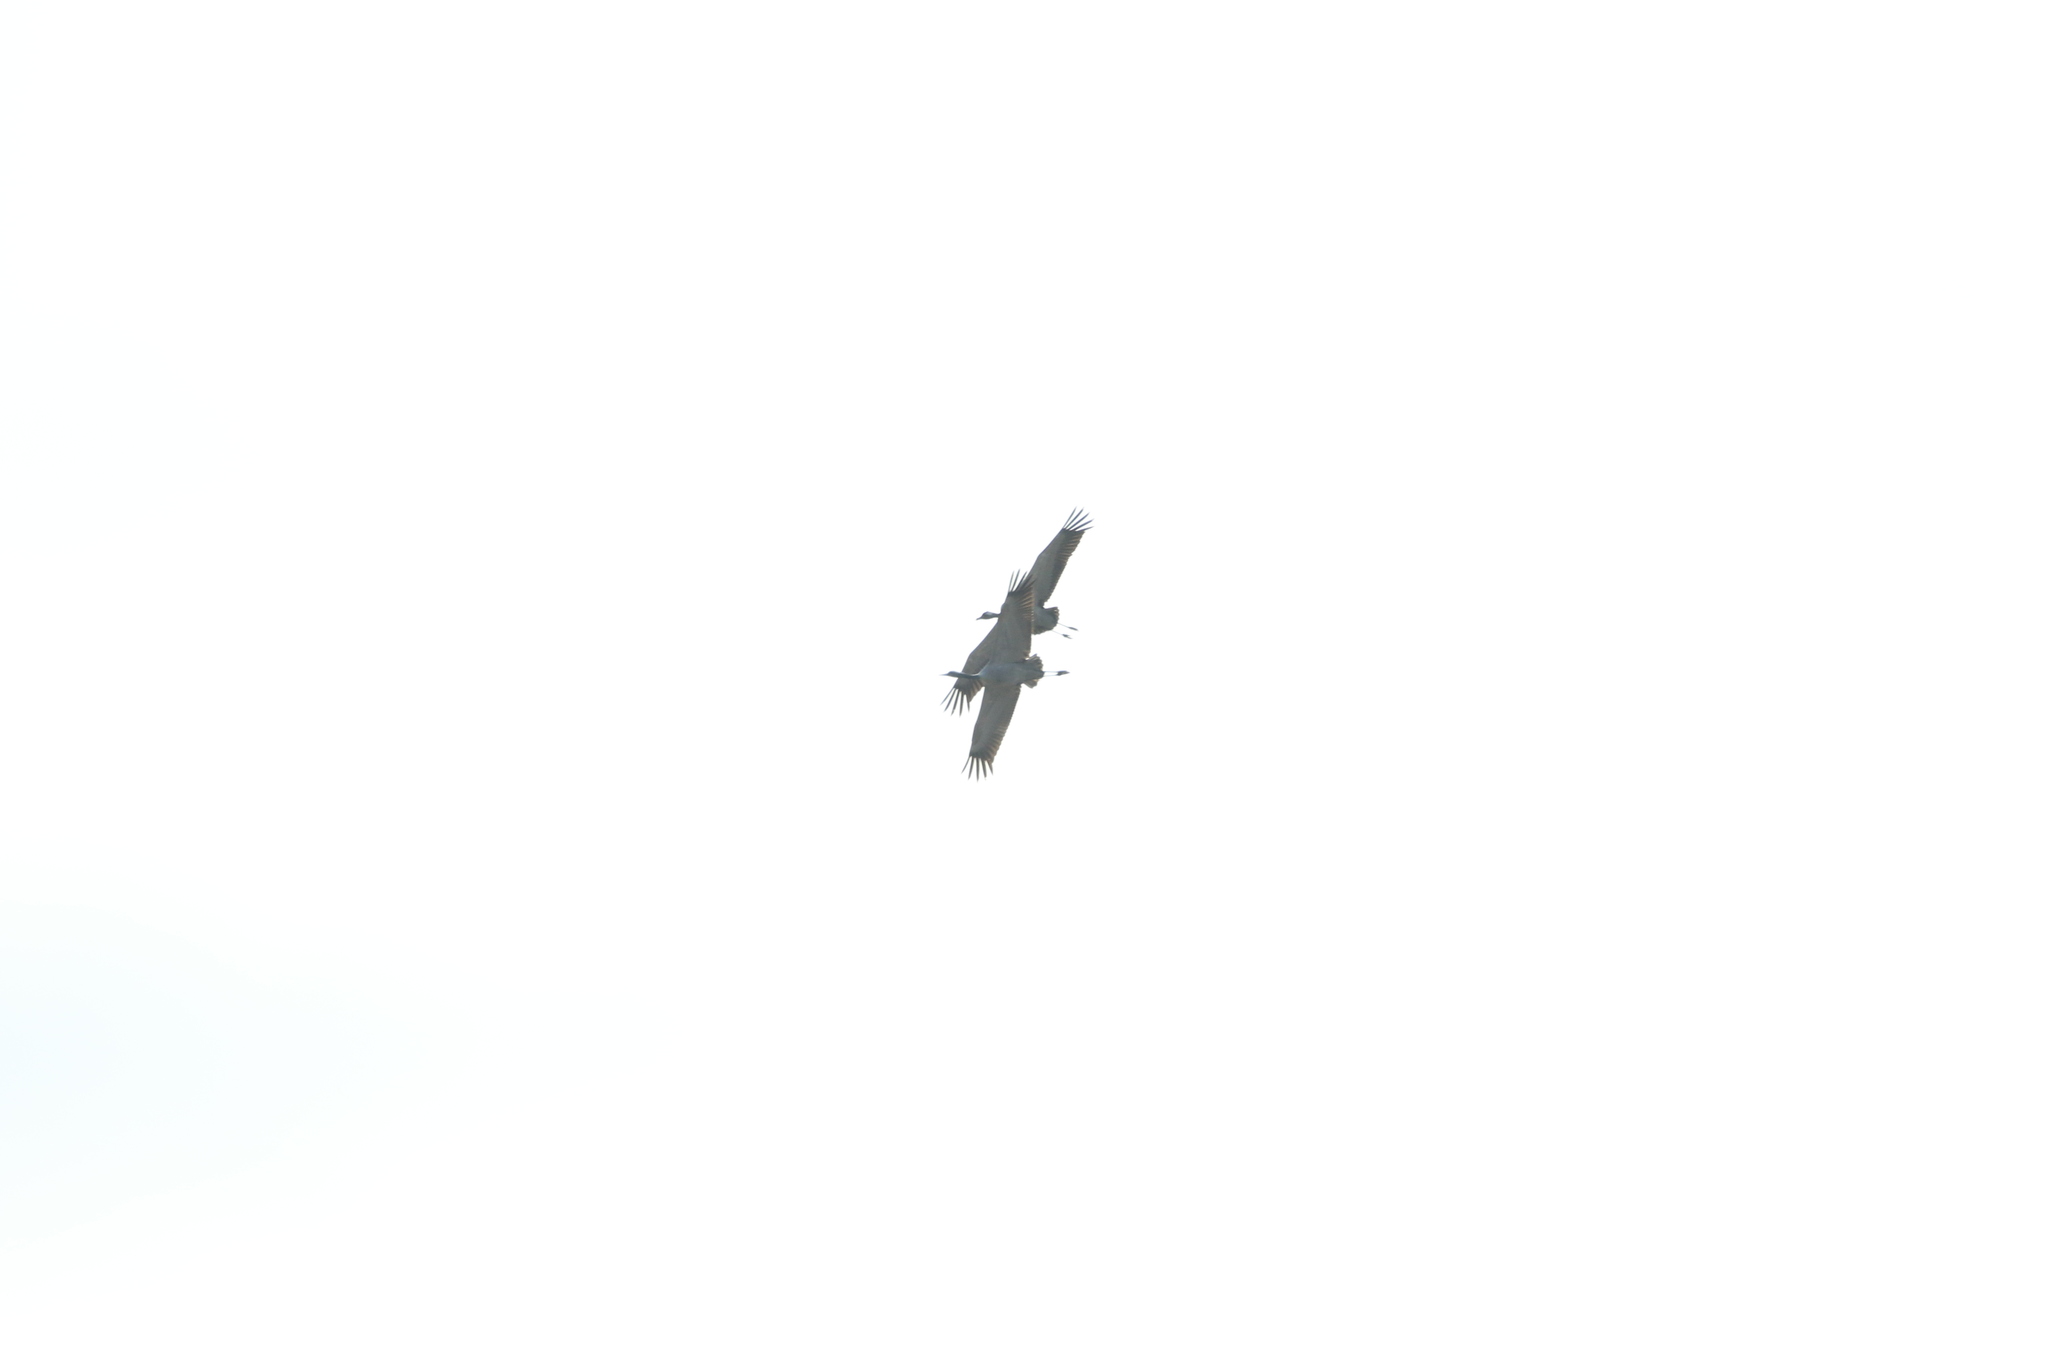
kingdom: Animalia
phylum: Chordata
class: Aves
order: Gruiformes
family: Gruidae
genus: Grus
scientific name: Grus grus
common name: Common crane
